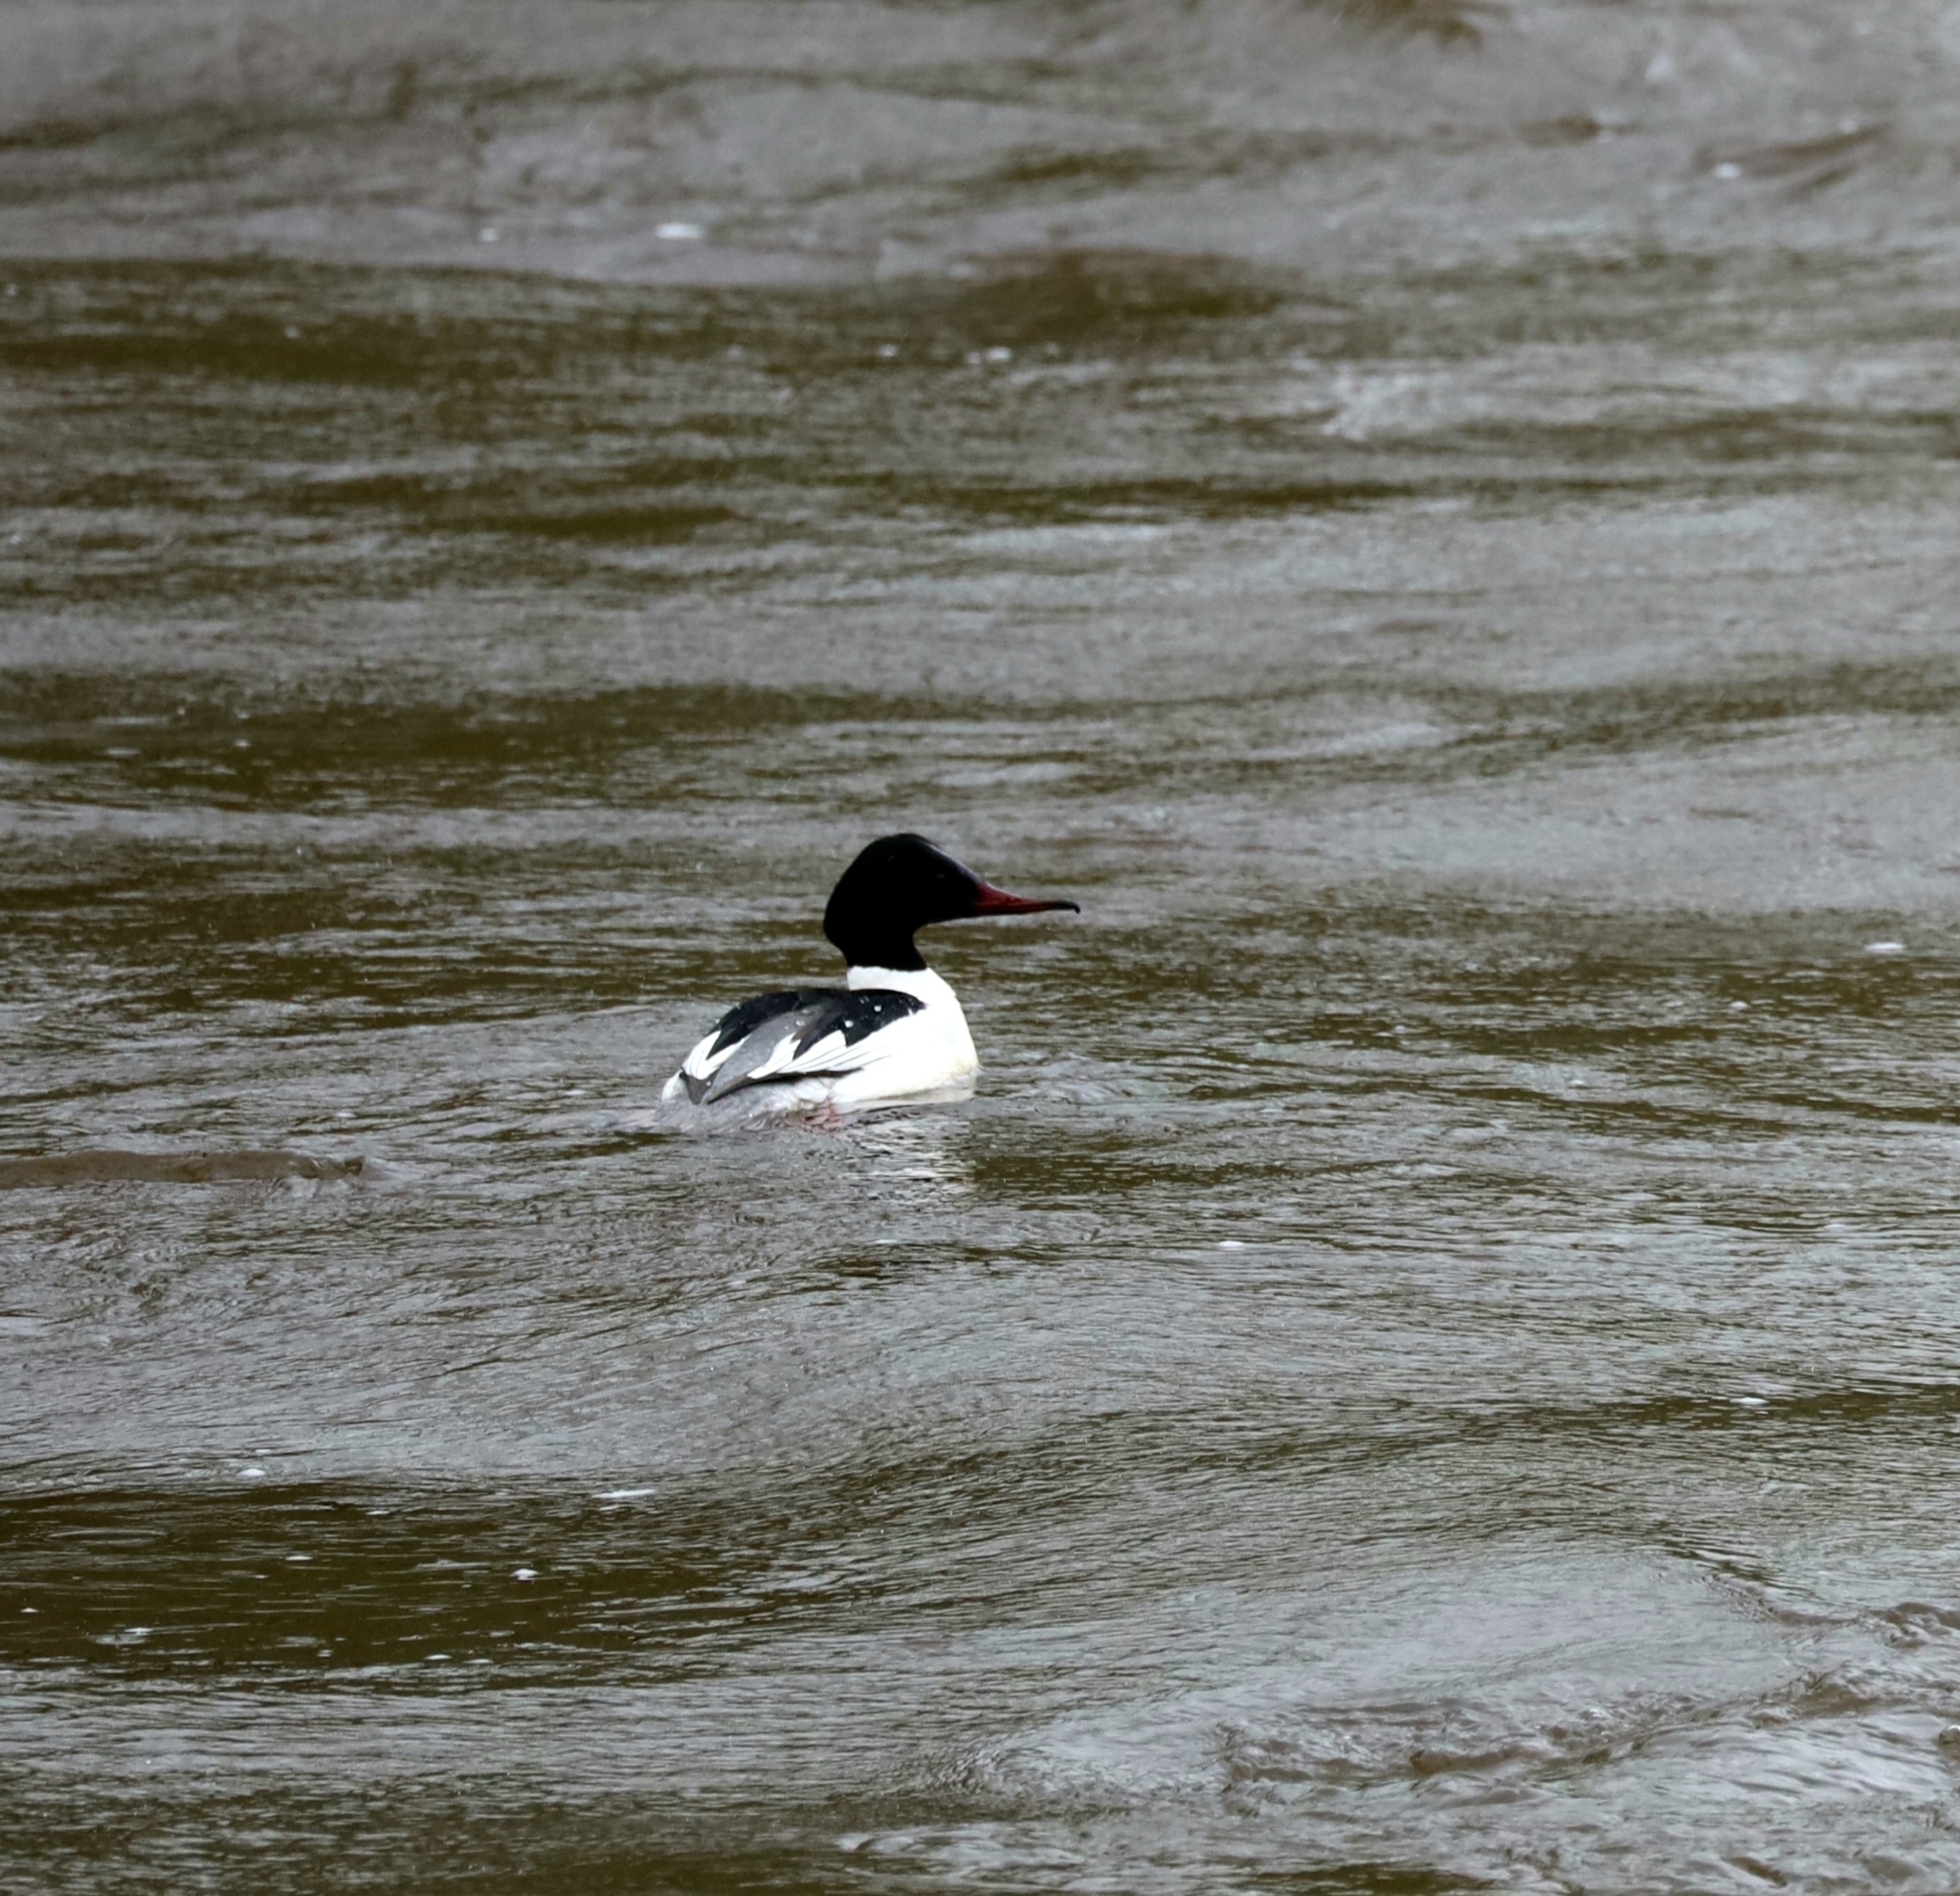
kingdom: Animalia
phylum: Chordata
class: Aves
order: Anseriformes
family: Anatidae
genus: Mergus
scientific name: Mergus merganser
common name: Common merganser
